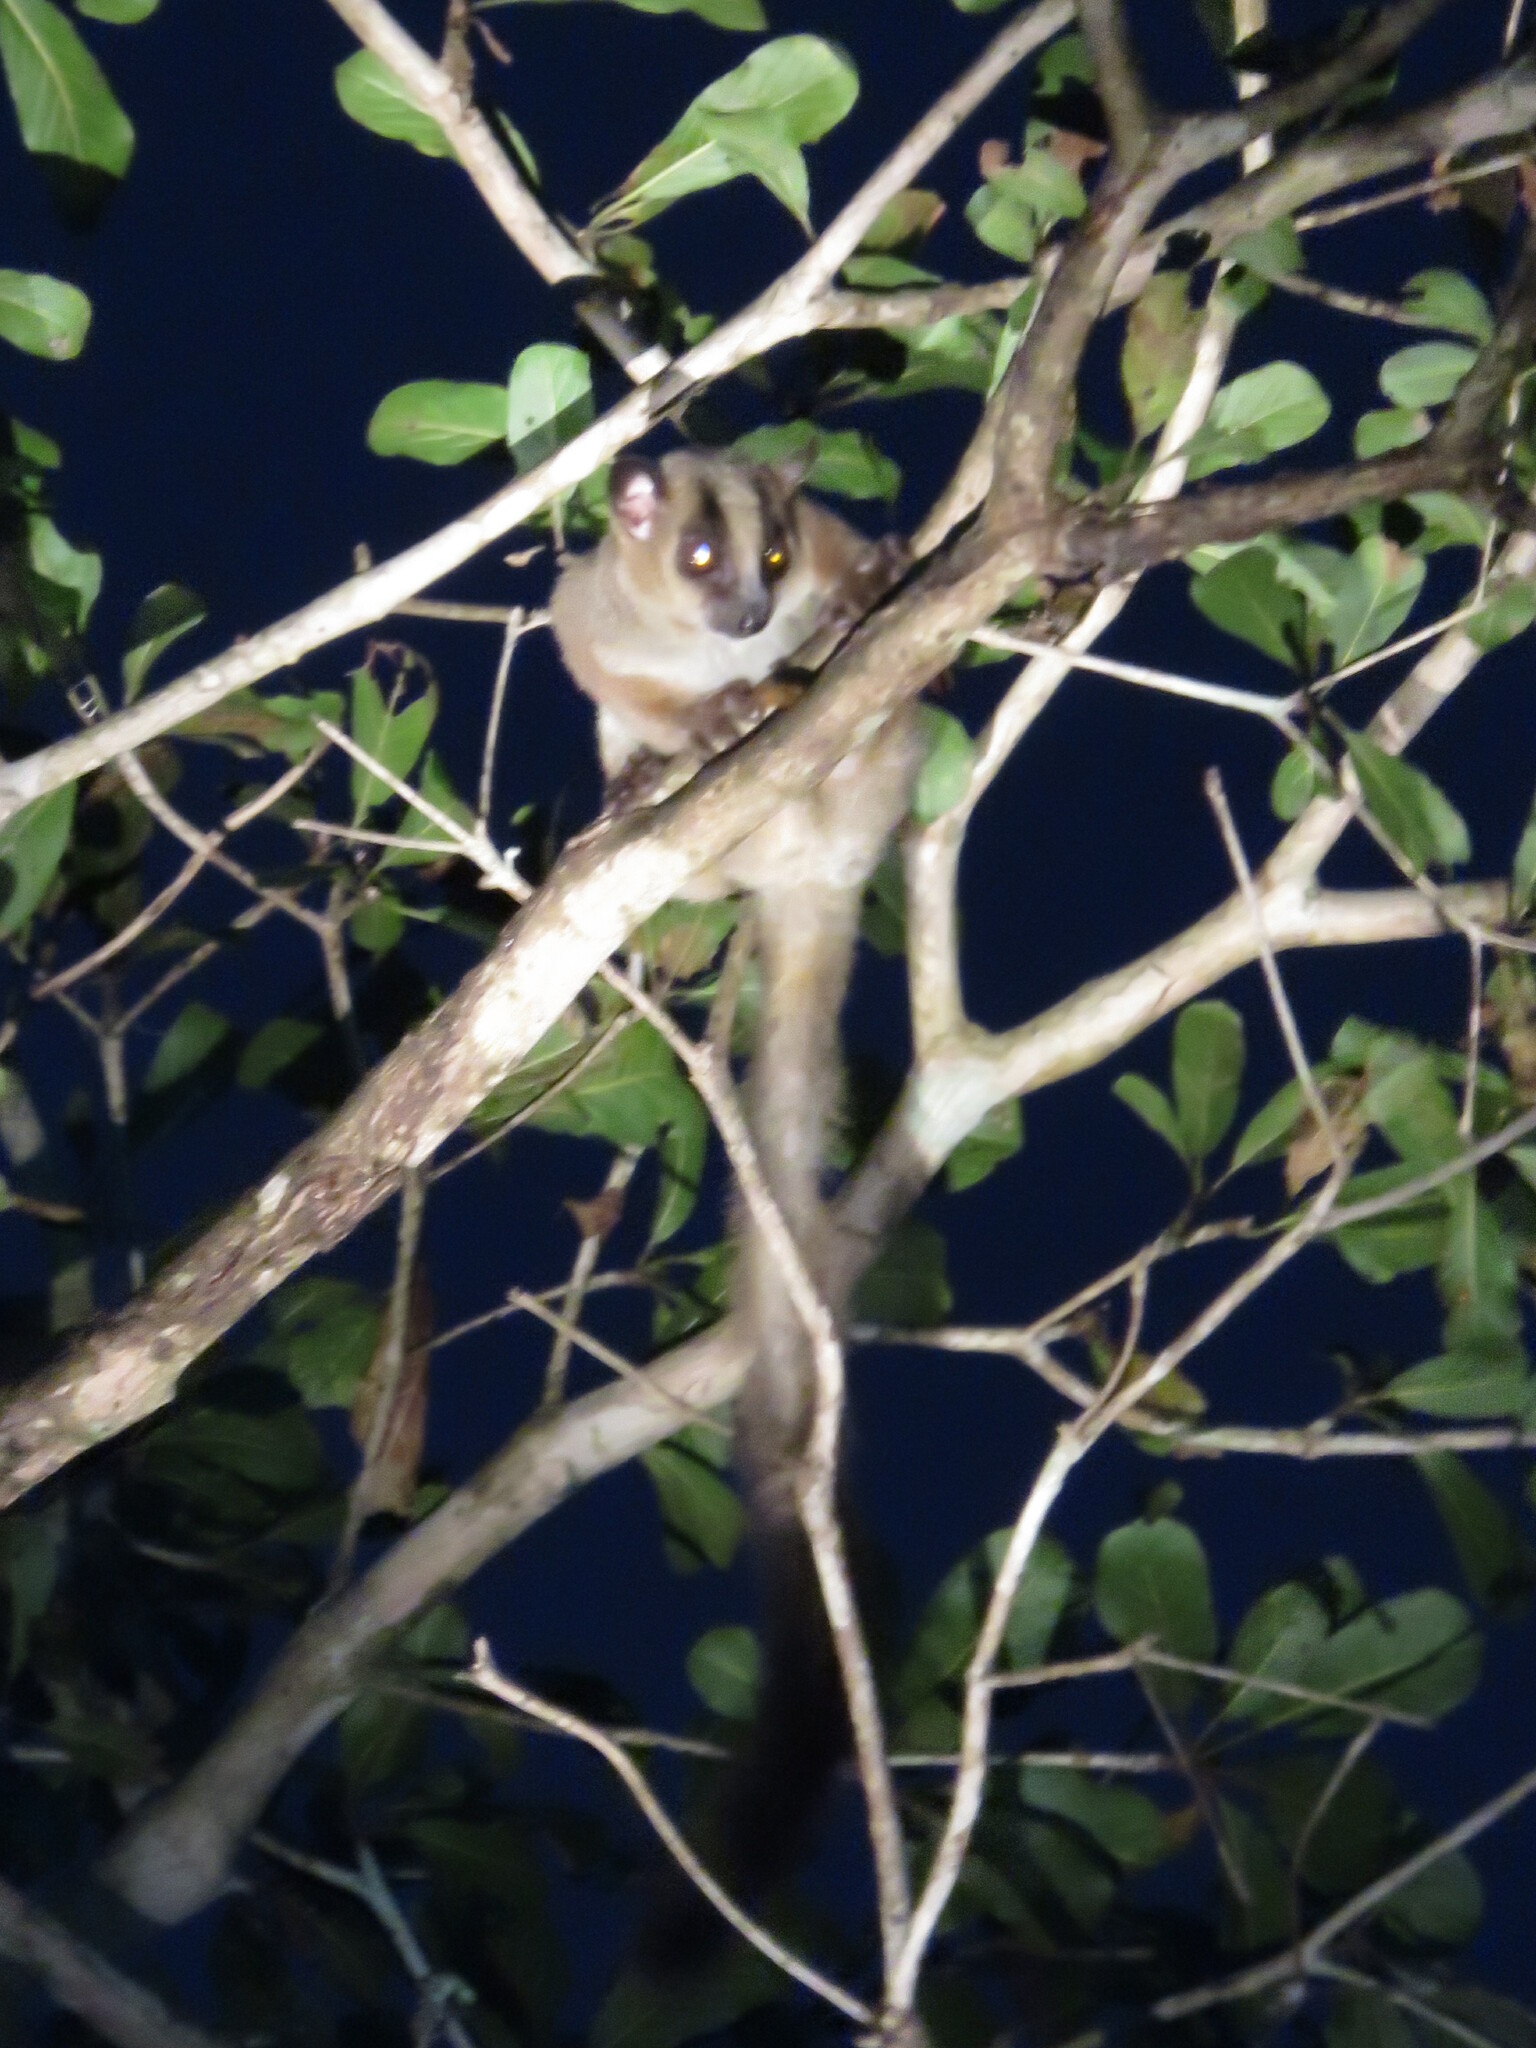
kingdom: Animalia
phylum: Chordata
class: Mammalia
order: Primates
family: Cheirogaleidae
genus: Phaner
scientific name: Phaner pallescens
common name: Pale fork-marked lemur
